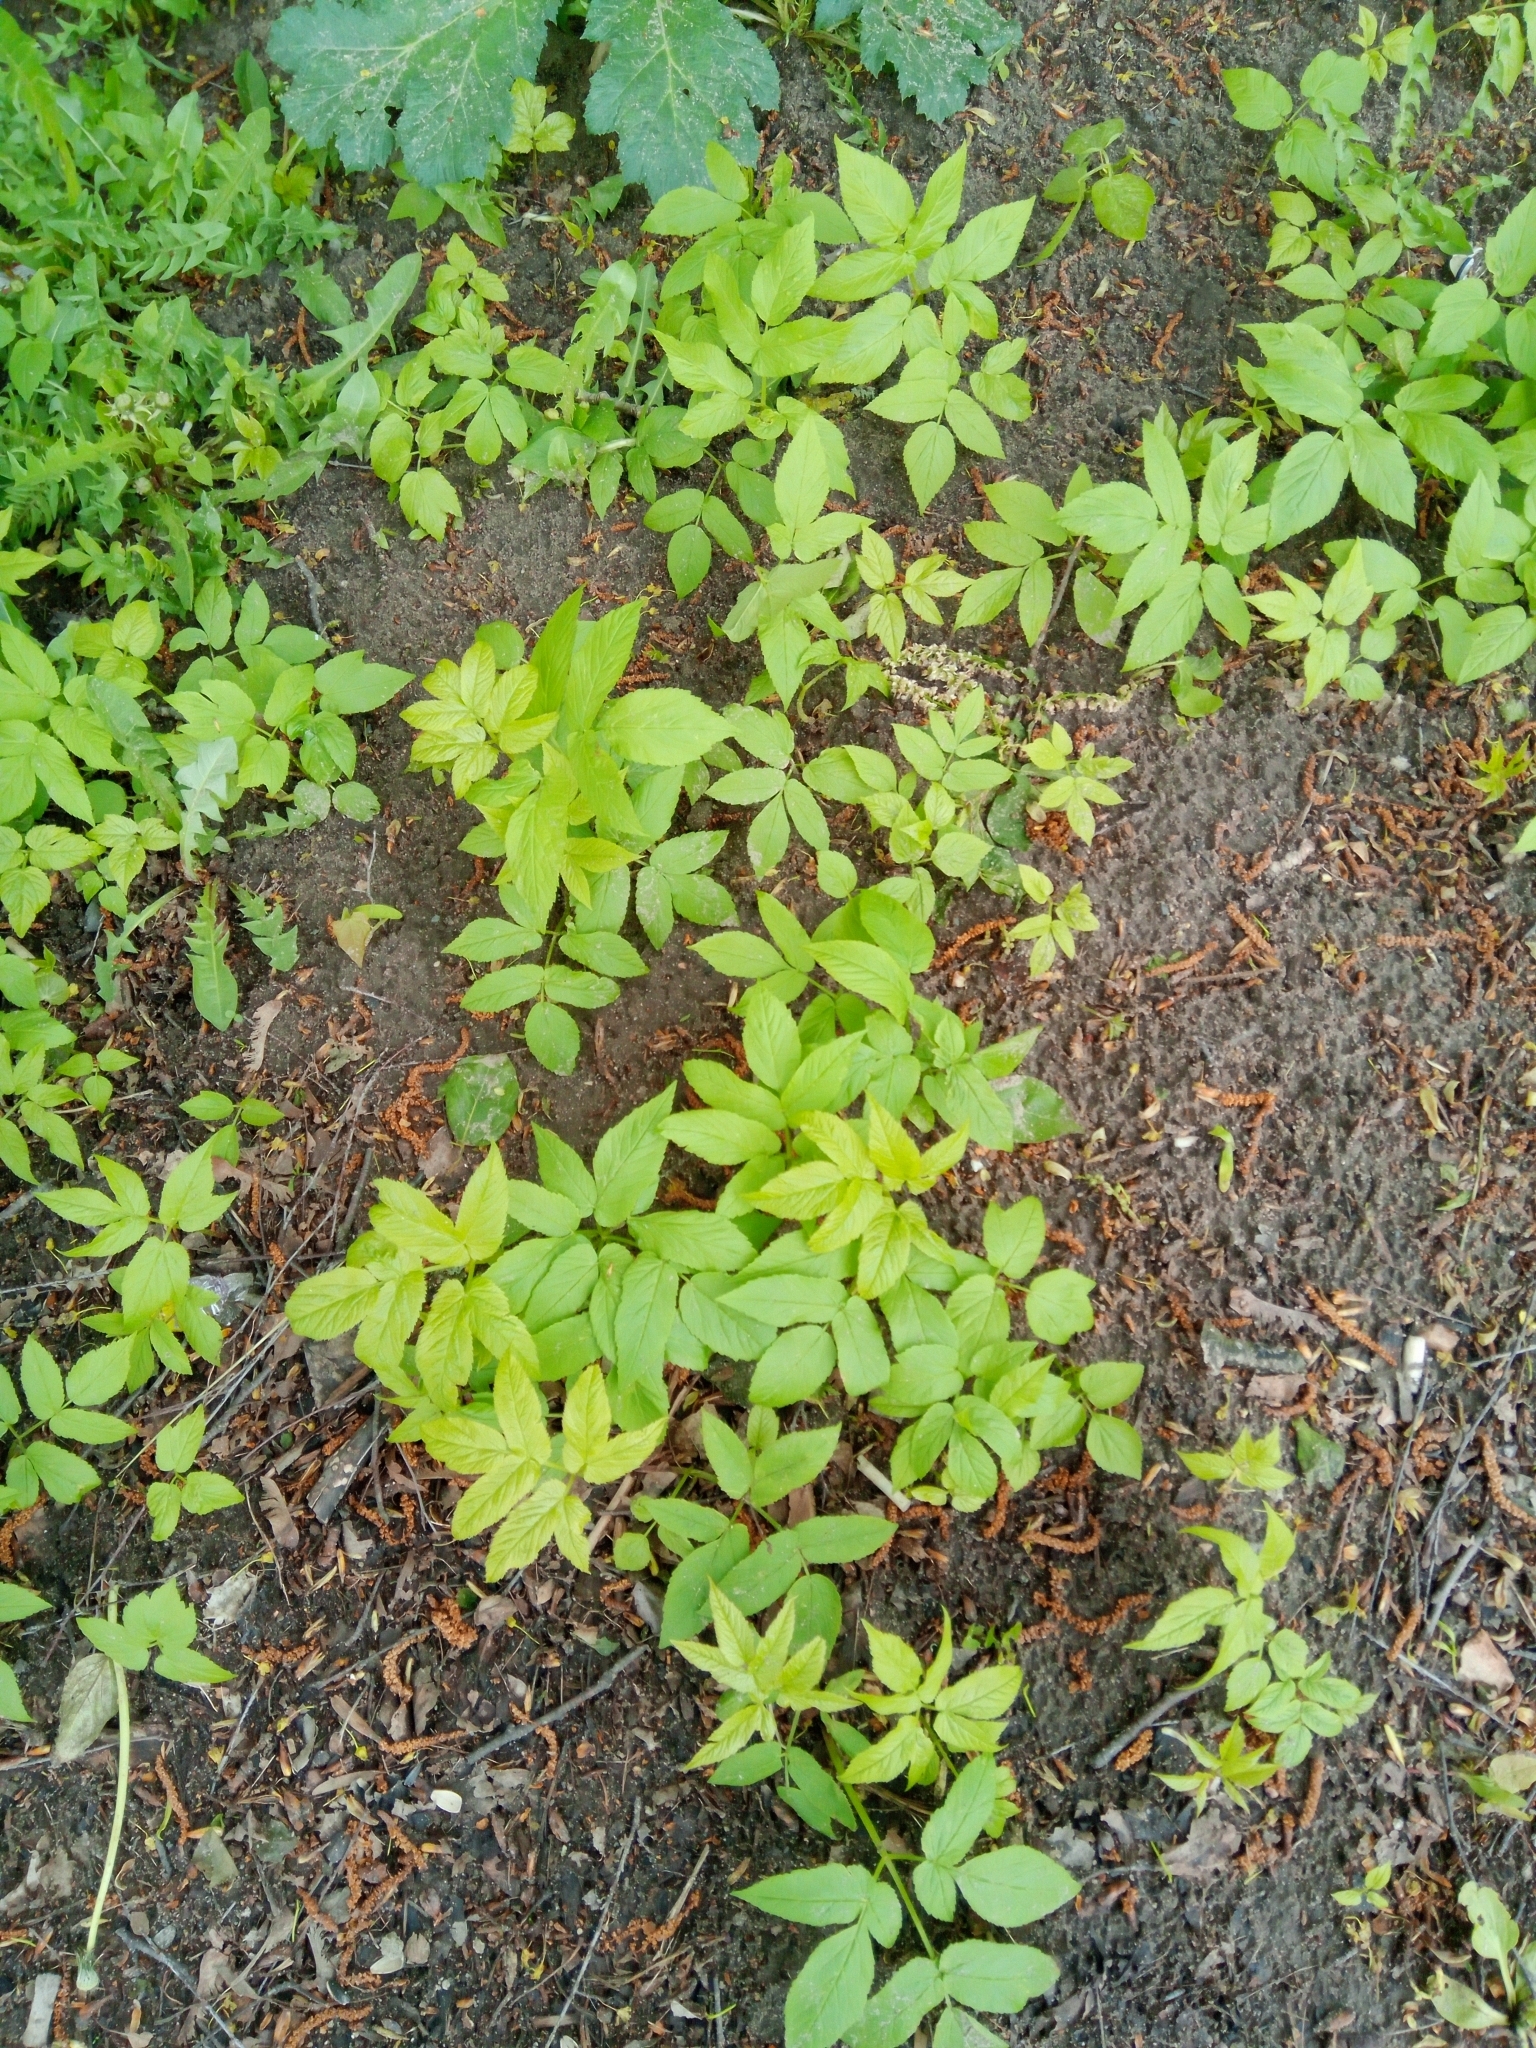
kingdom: Plantae
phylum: Tracheophyta
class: Magnoliopsida
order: Apiales
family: Apiaceae
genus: Aegopodium
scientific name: Aegopodium podagraria
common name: Ground-elder
